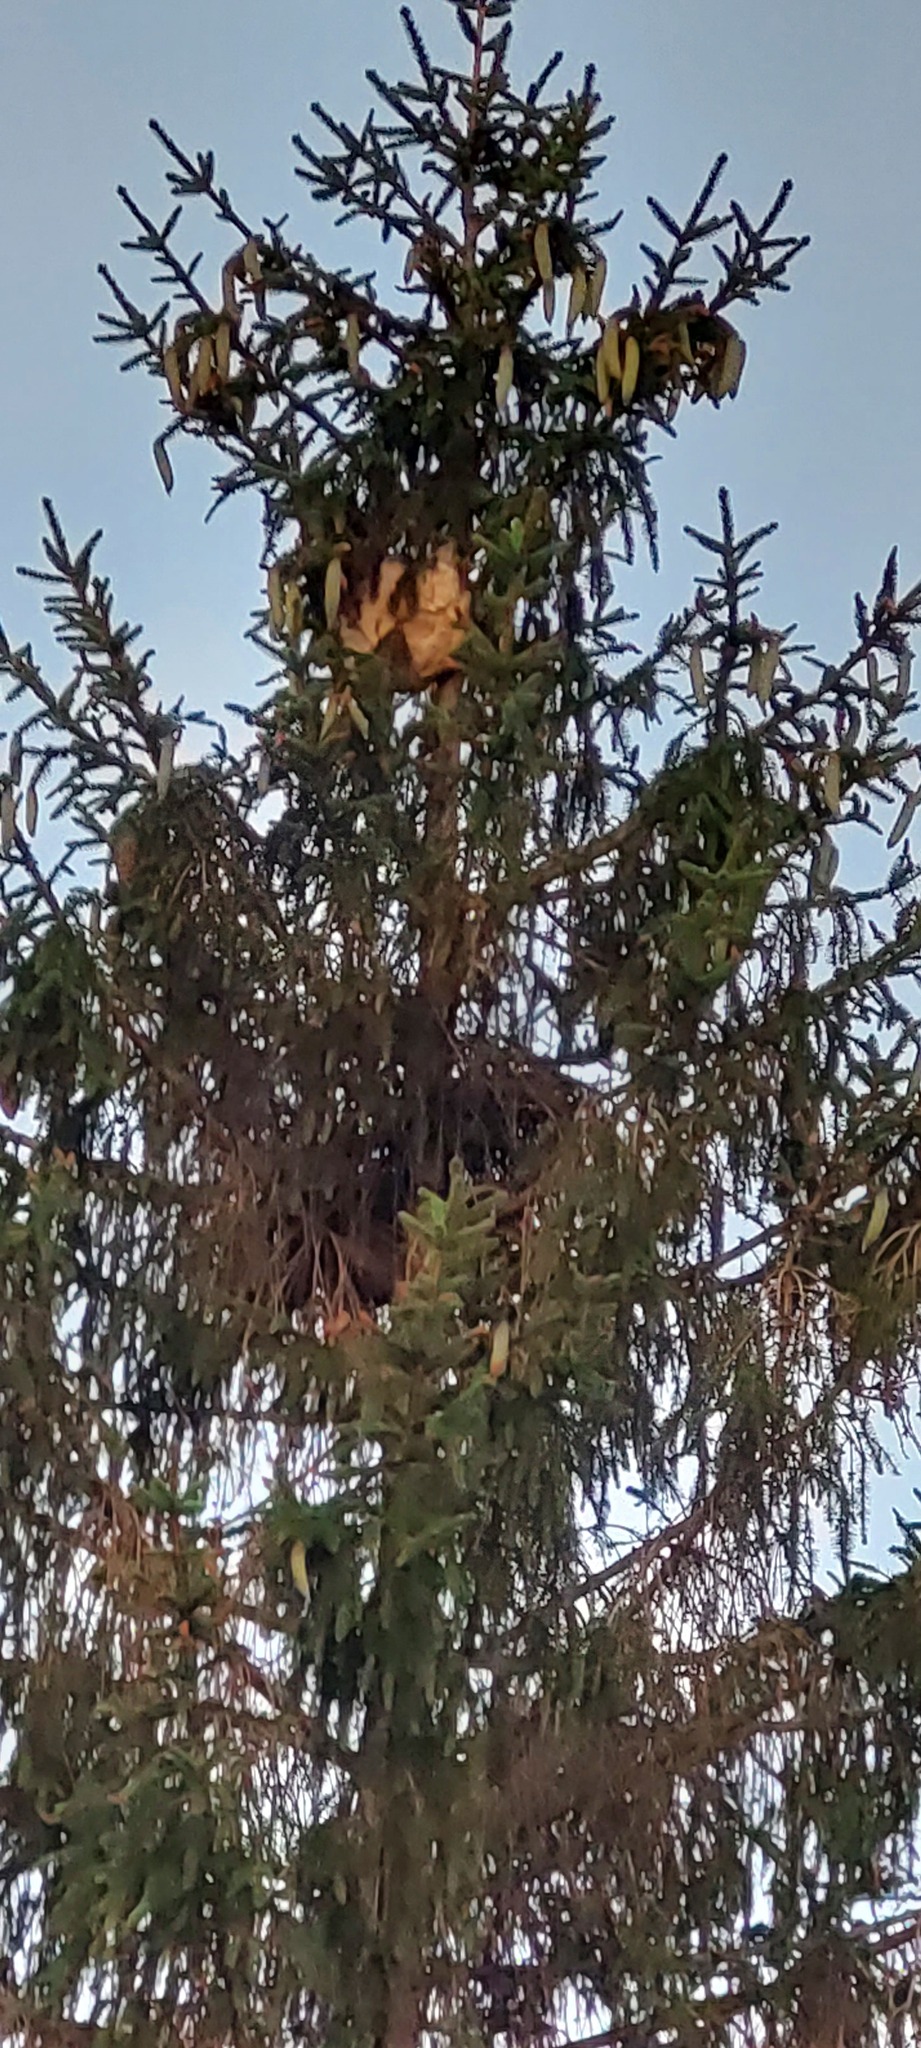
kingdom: Animalia
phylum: Arthropoda
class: Insecta
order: Hymenoptera
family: Vespidae
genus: Vespa
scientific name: Vespa velutina
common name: Asian hornet
